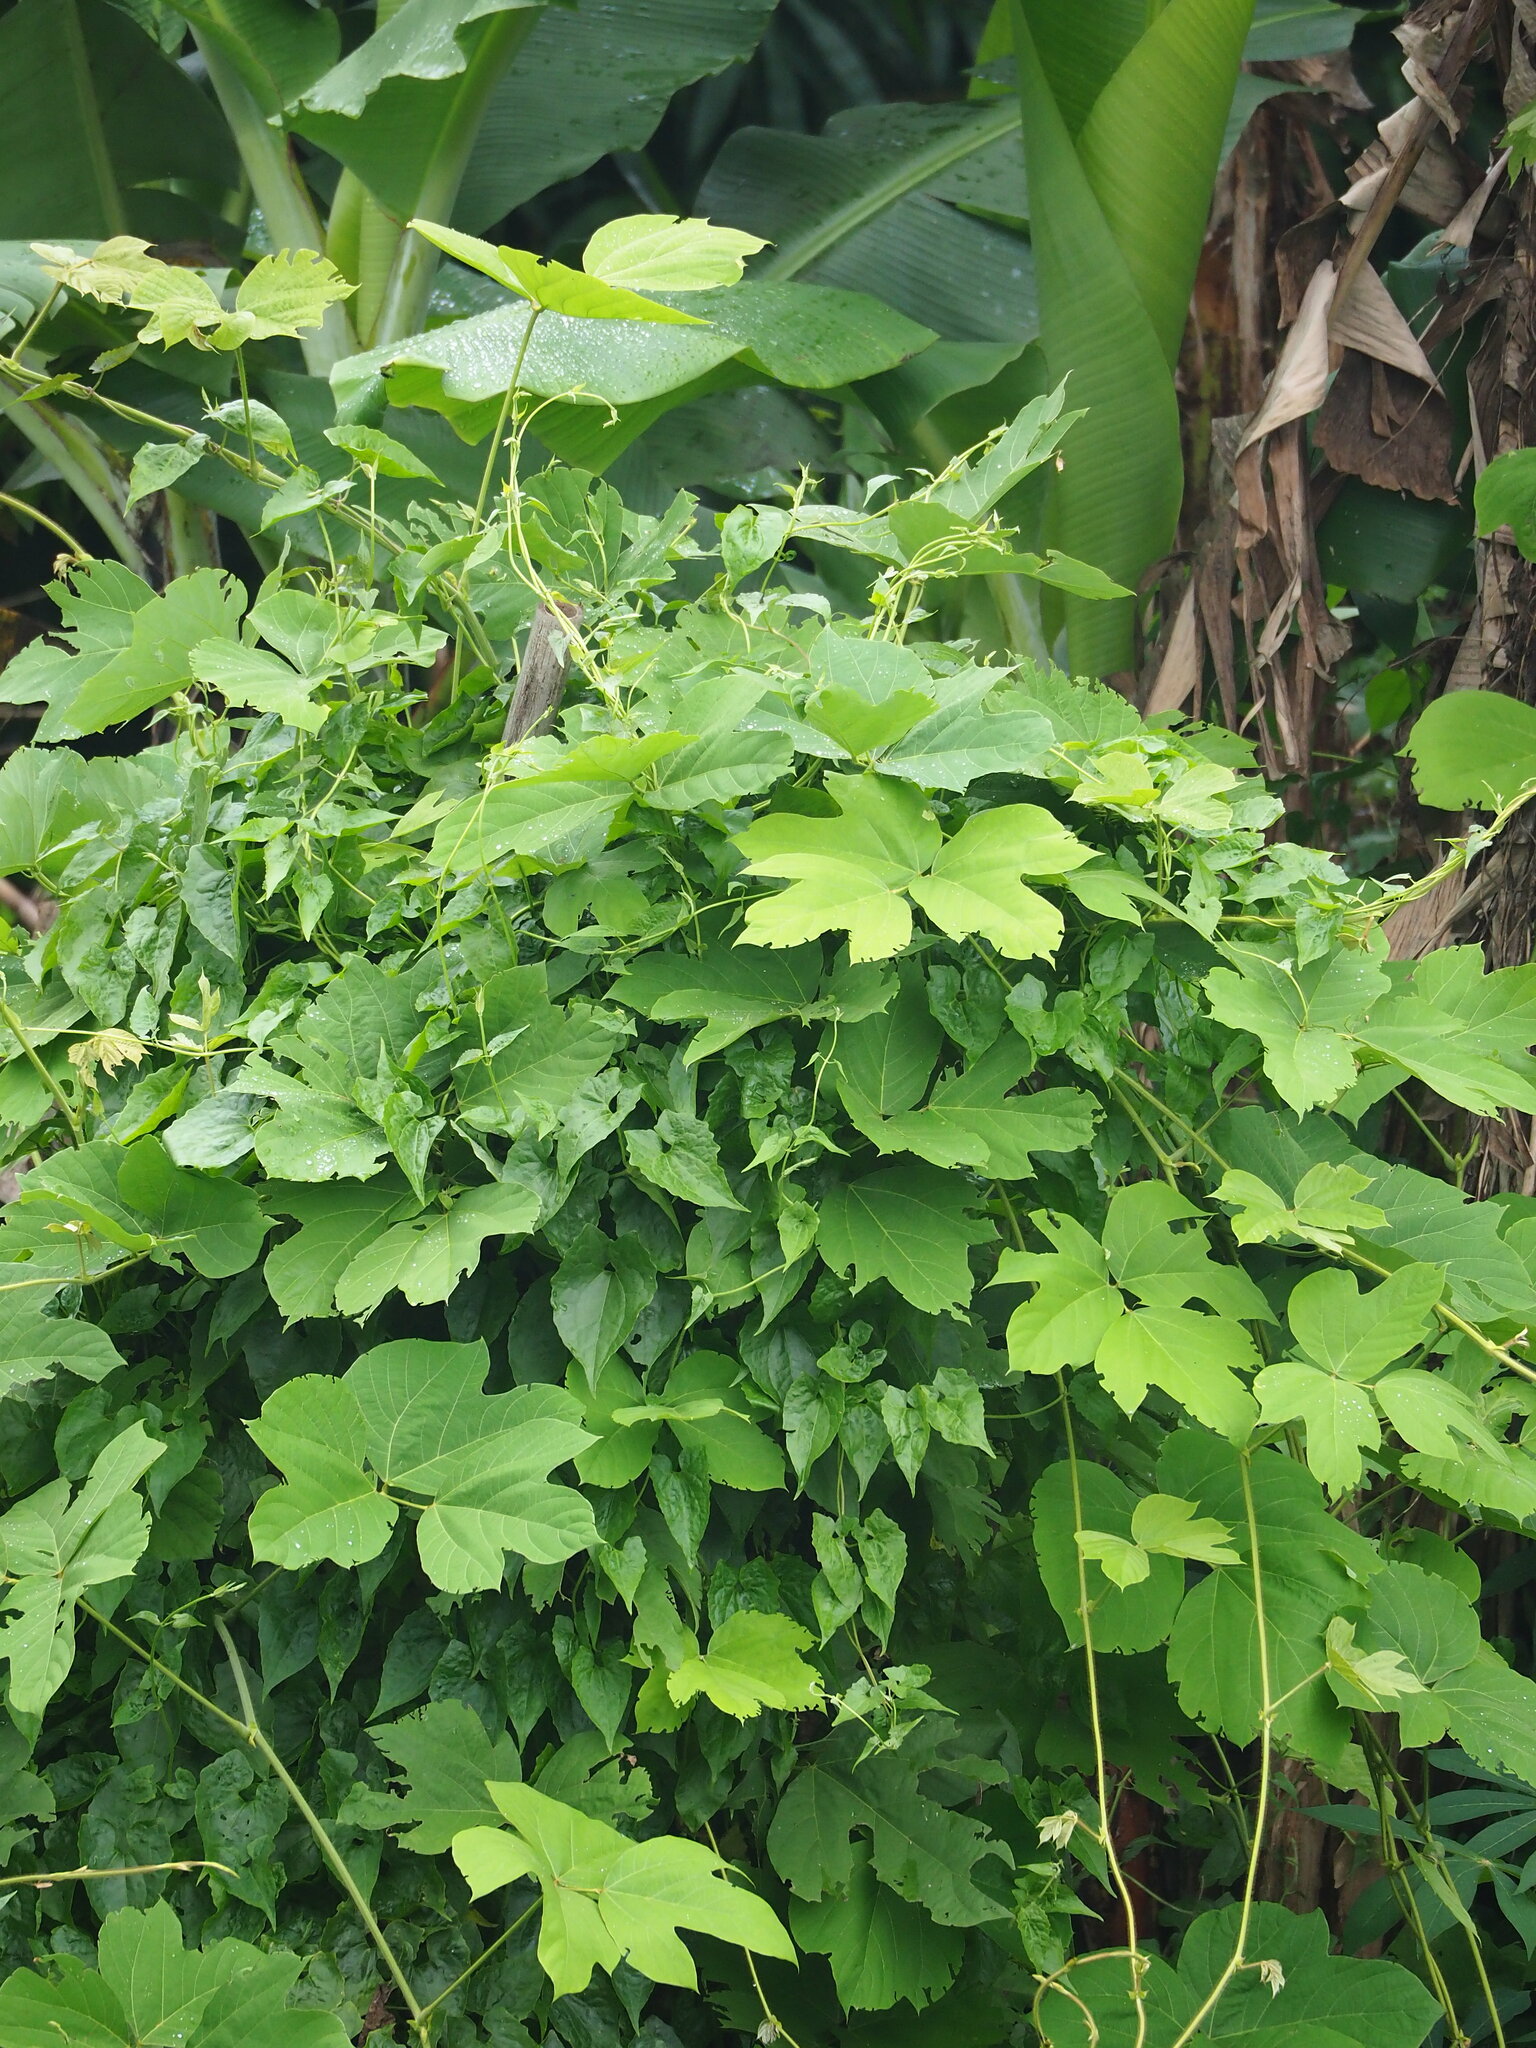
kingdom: Plantae
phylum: Tracheophyta
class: Magnoliopsida
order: Fabales
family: Fabaceae
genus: Pueraria
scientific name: Pueraria montana
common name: Kudzu
